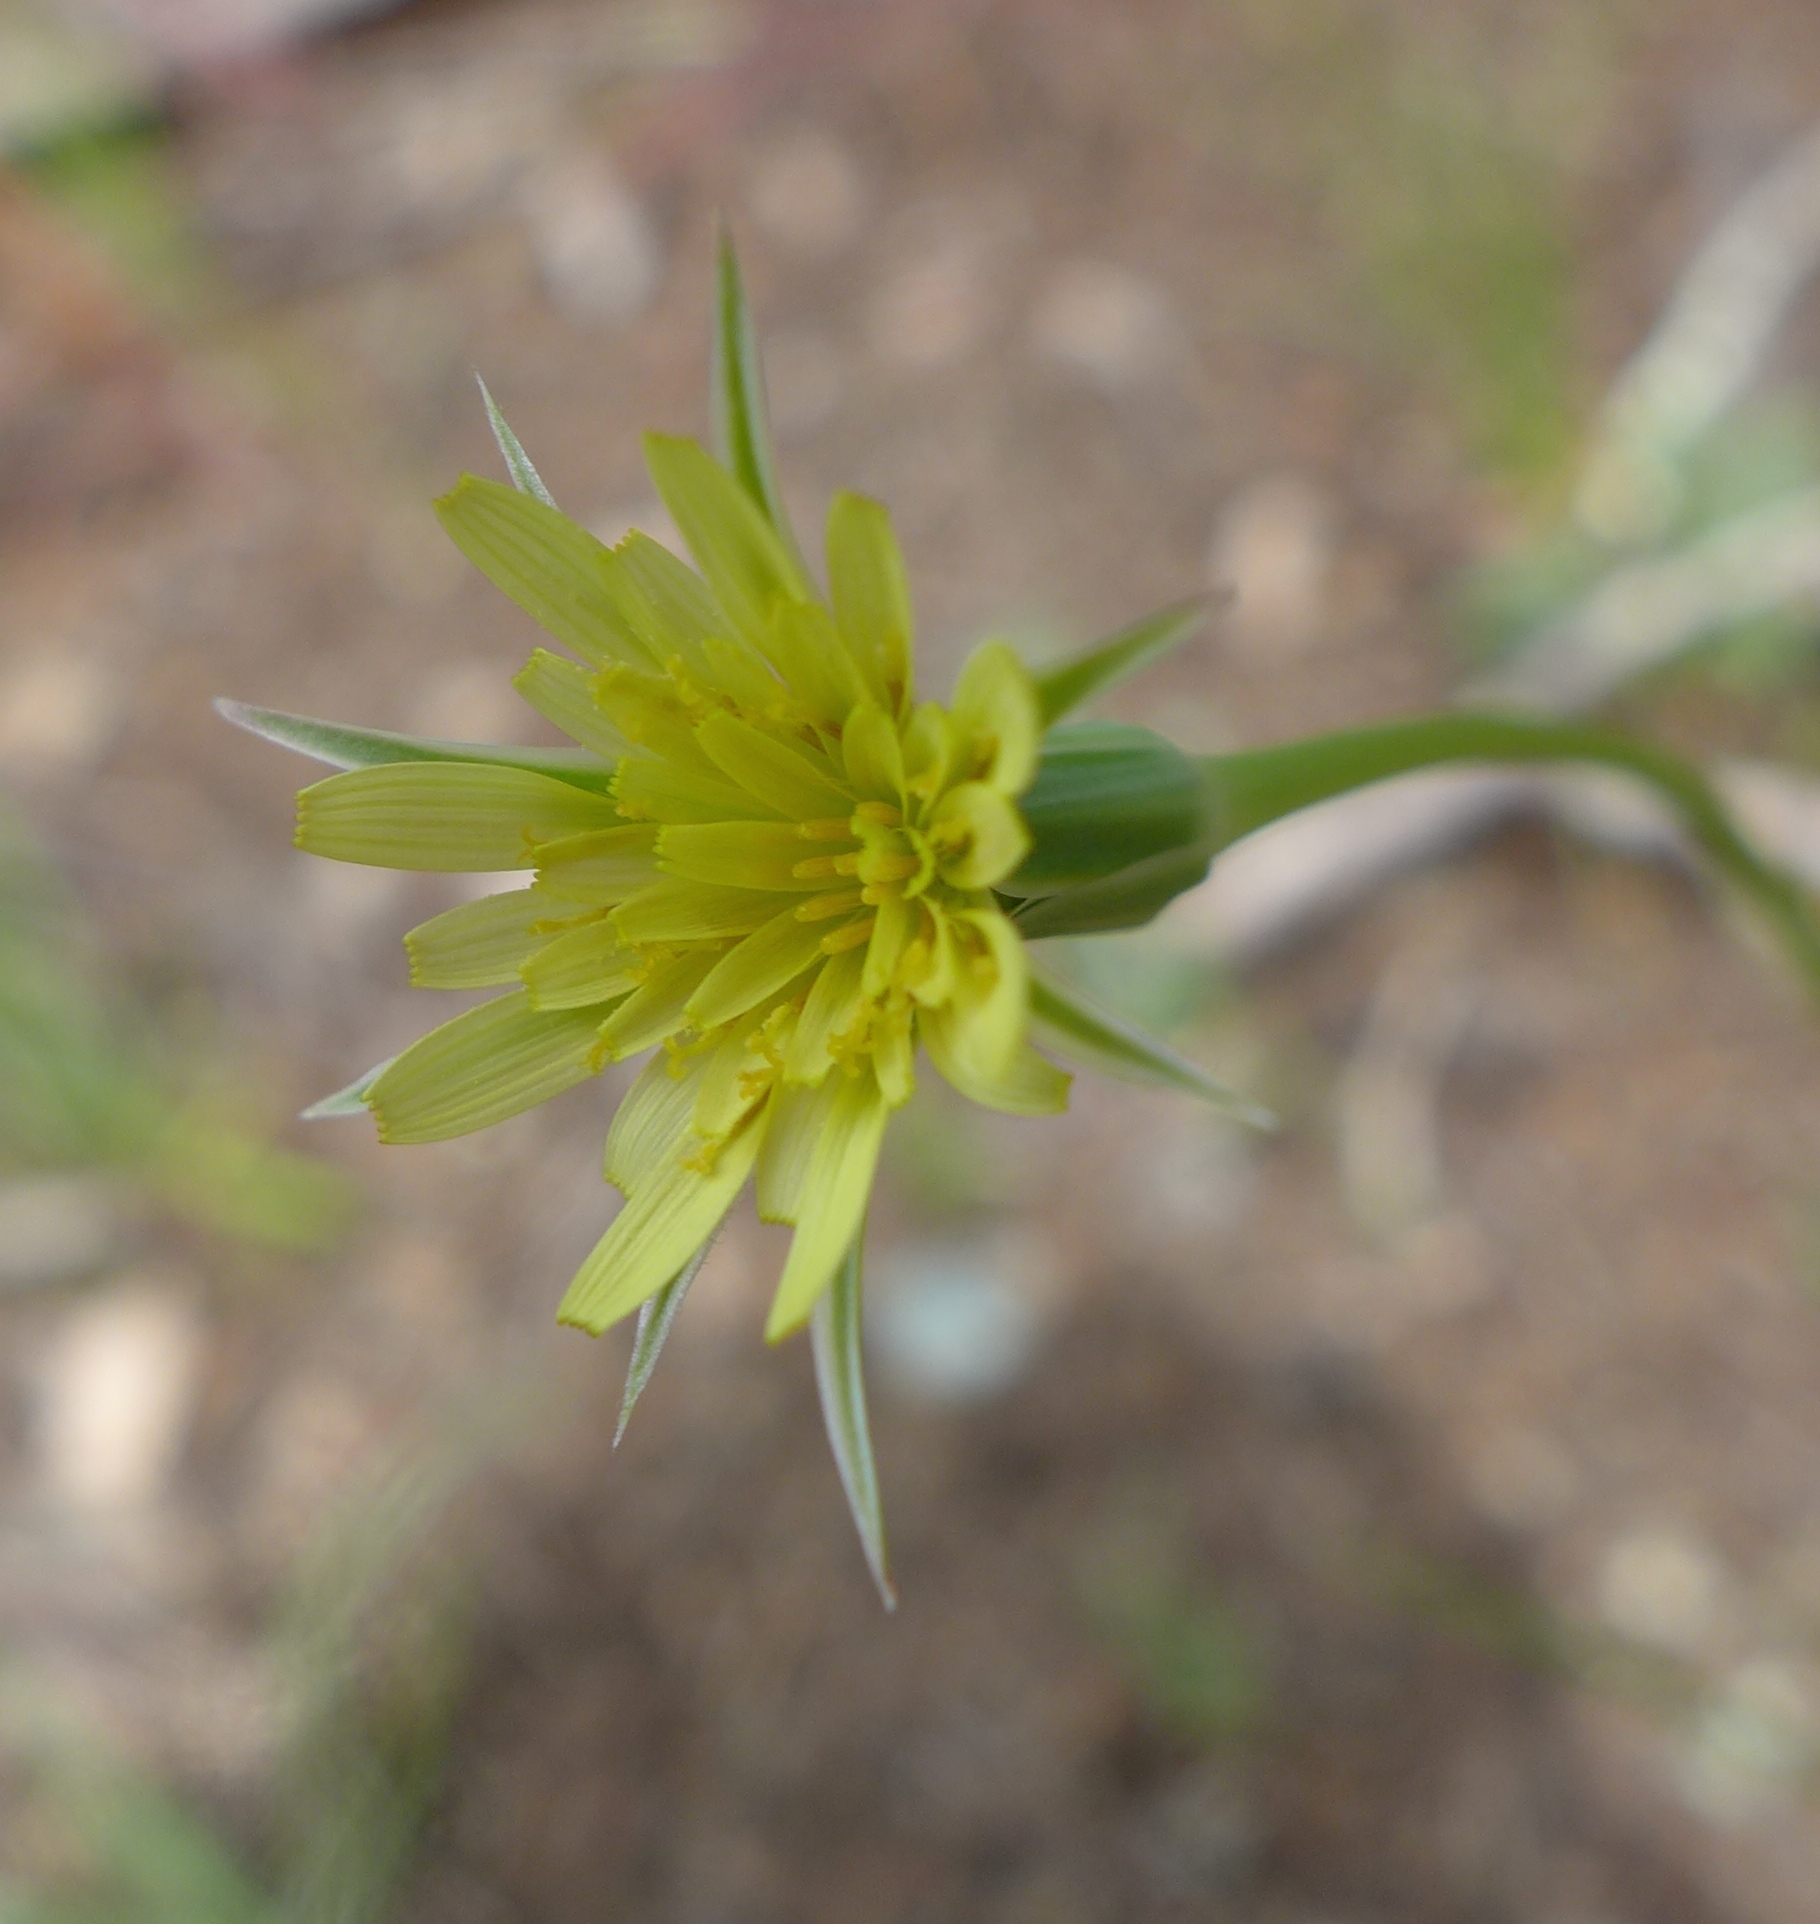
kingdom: Plantae
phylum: Tracheophyta
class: Magnoliopsida
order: Asterales
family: Asteraceae
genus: Microseris
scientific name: Microseris lindleyi
